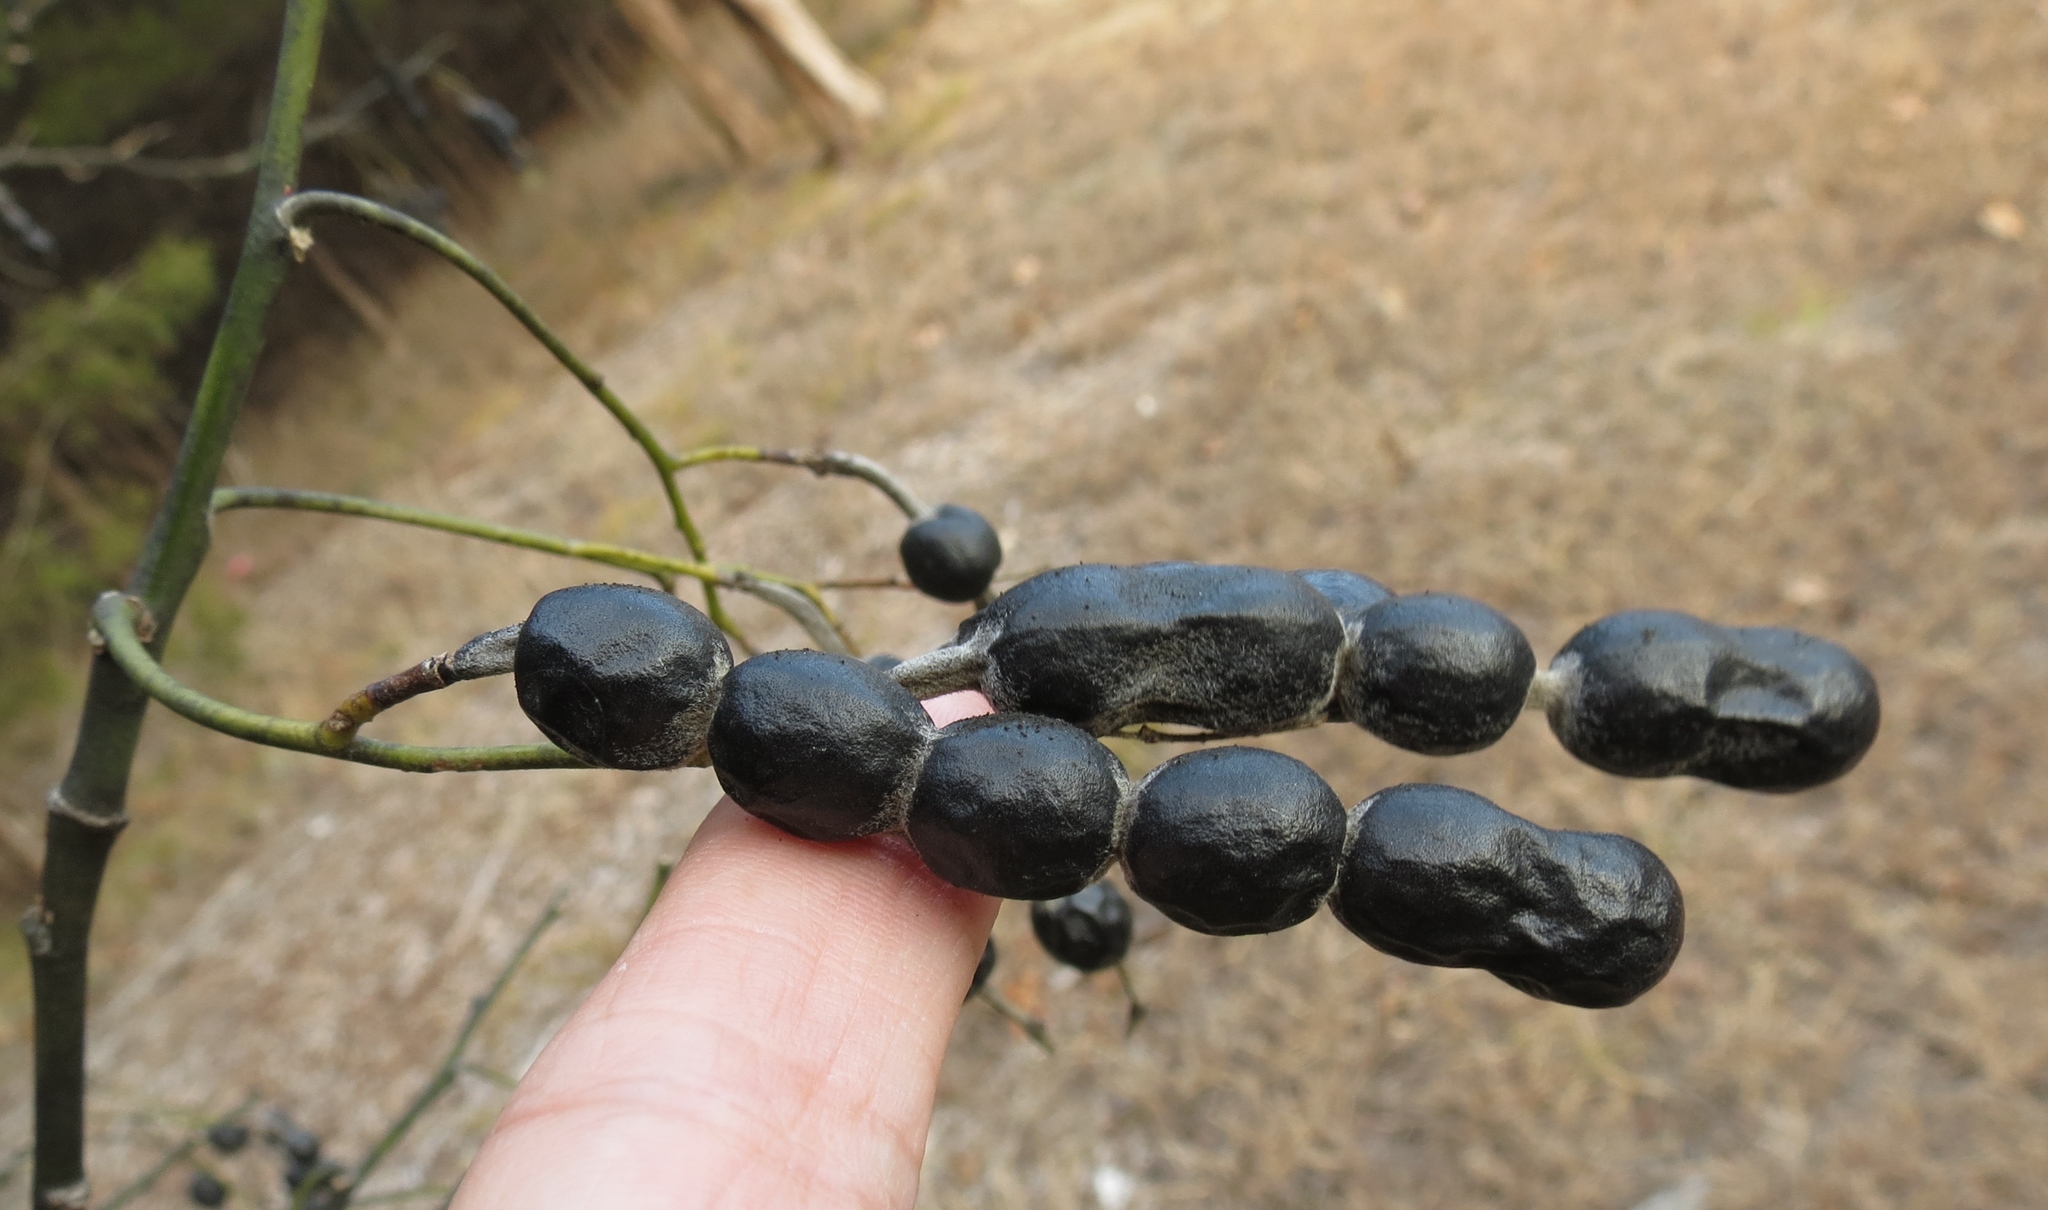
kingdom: Plantae
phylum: Tracheophyta
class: Magnoliopsida
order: Fabales
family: Fabaceae
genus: Styphnolobium
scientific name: Styphnolobium affine
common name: Texas sophora
